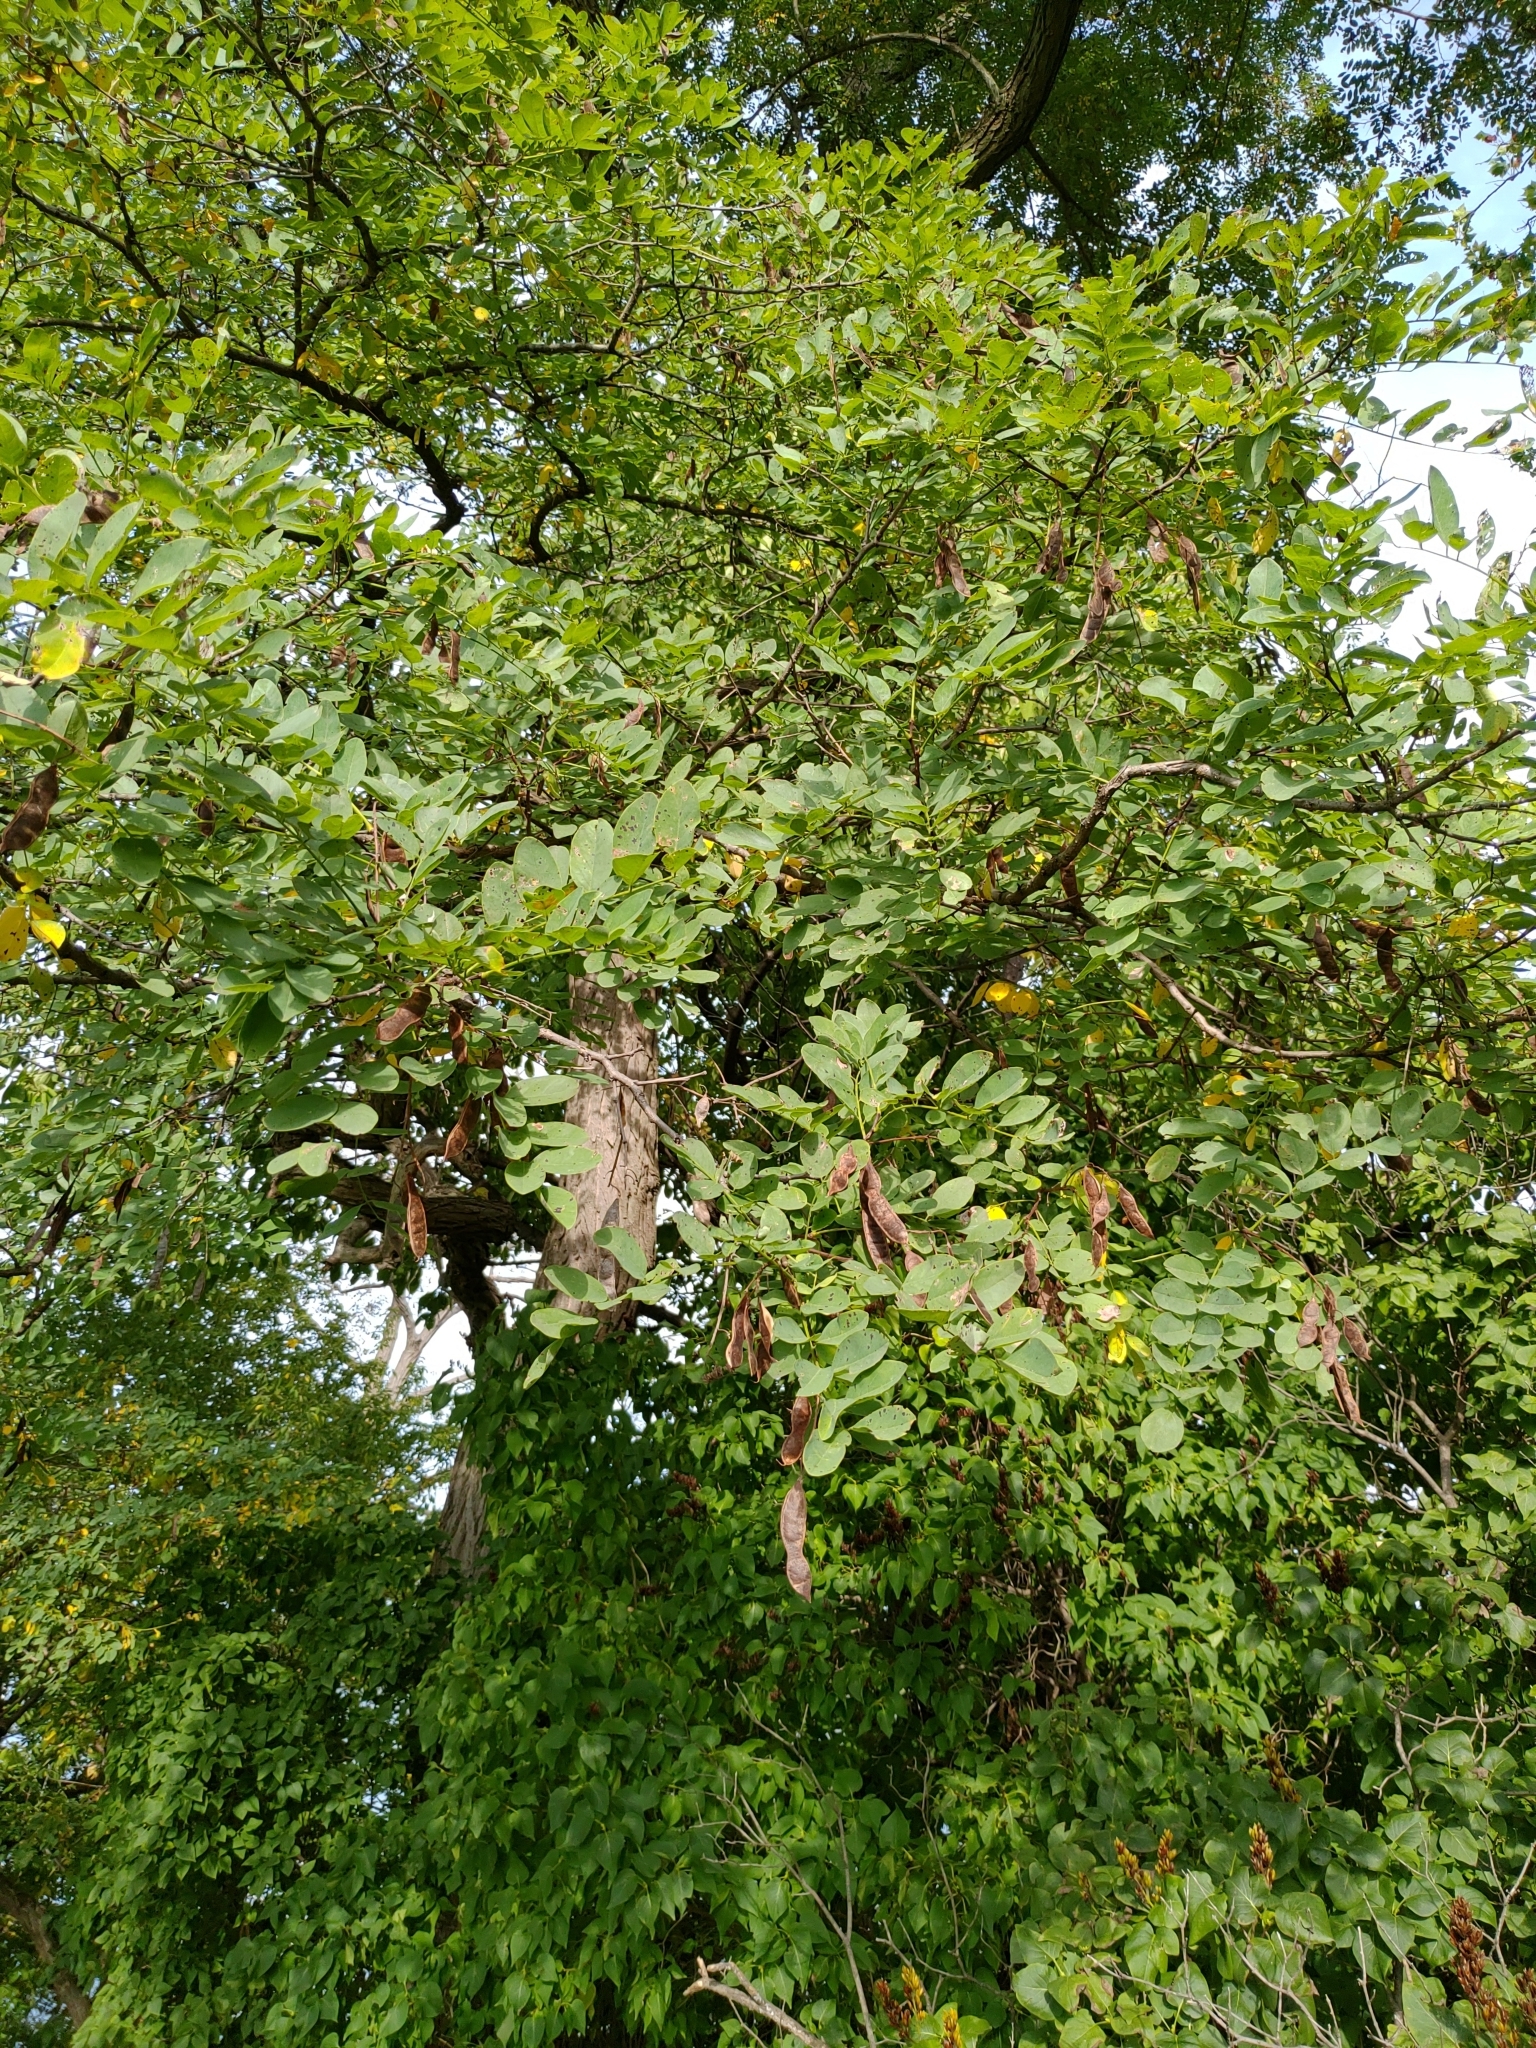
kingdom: Plantae
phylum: Tracheophyta
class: Magnoliopsida
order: Fabales
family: Fabaceae
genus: Robinia
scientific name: Robinia pseudoacacia
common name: Black locust
